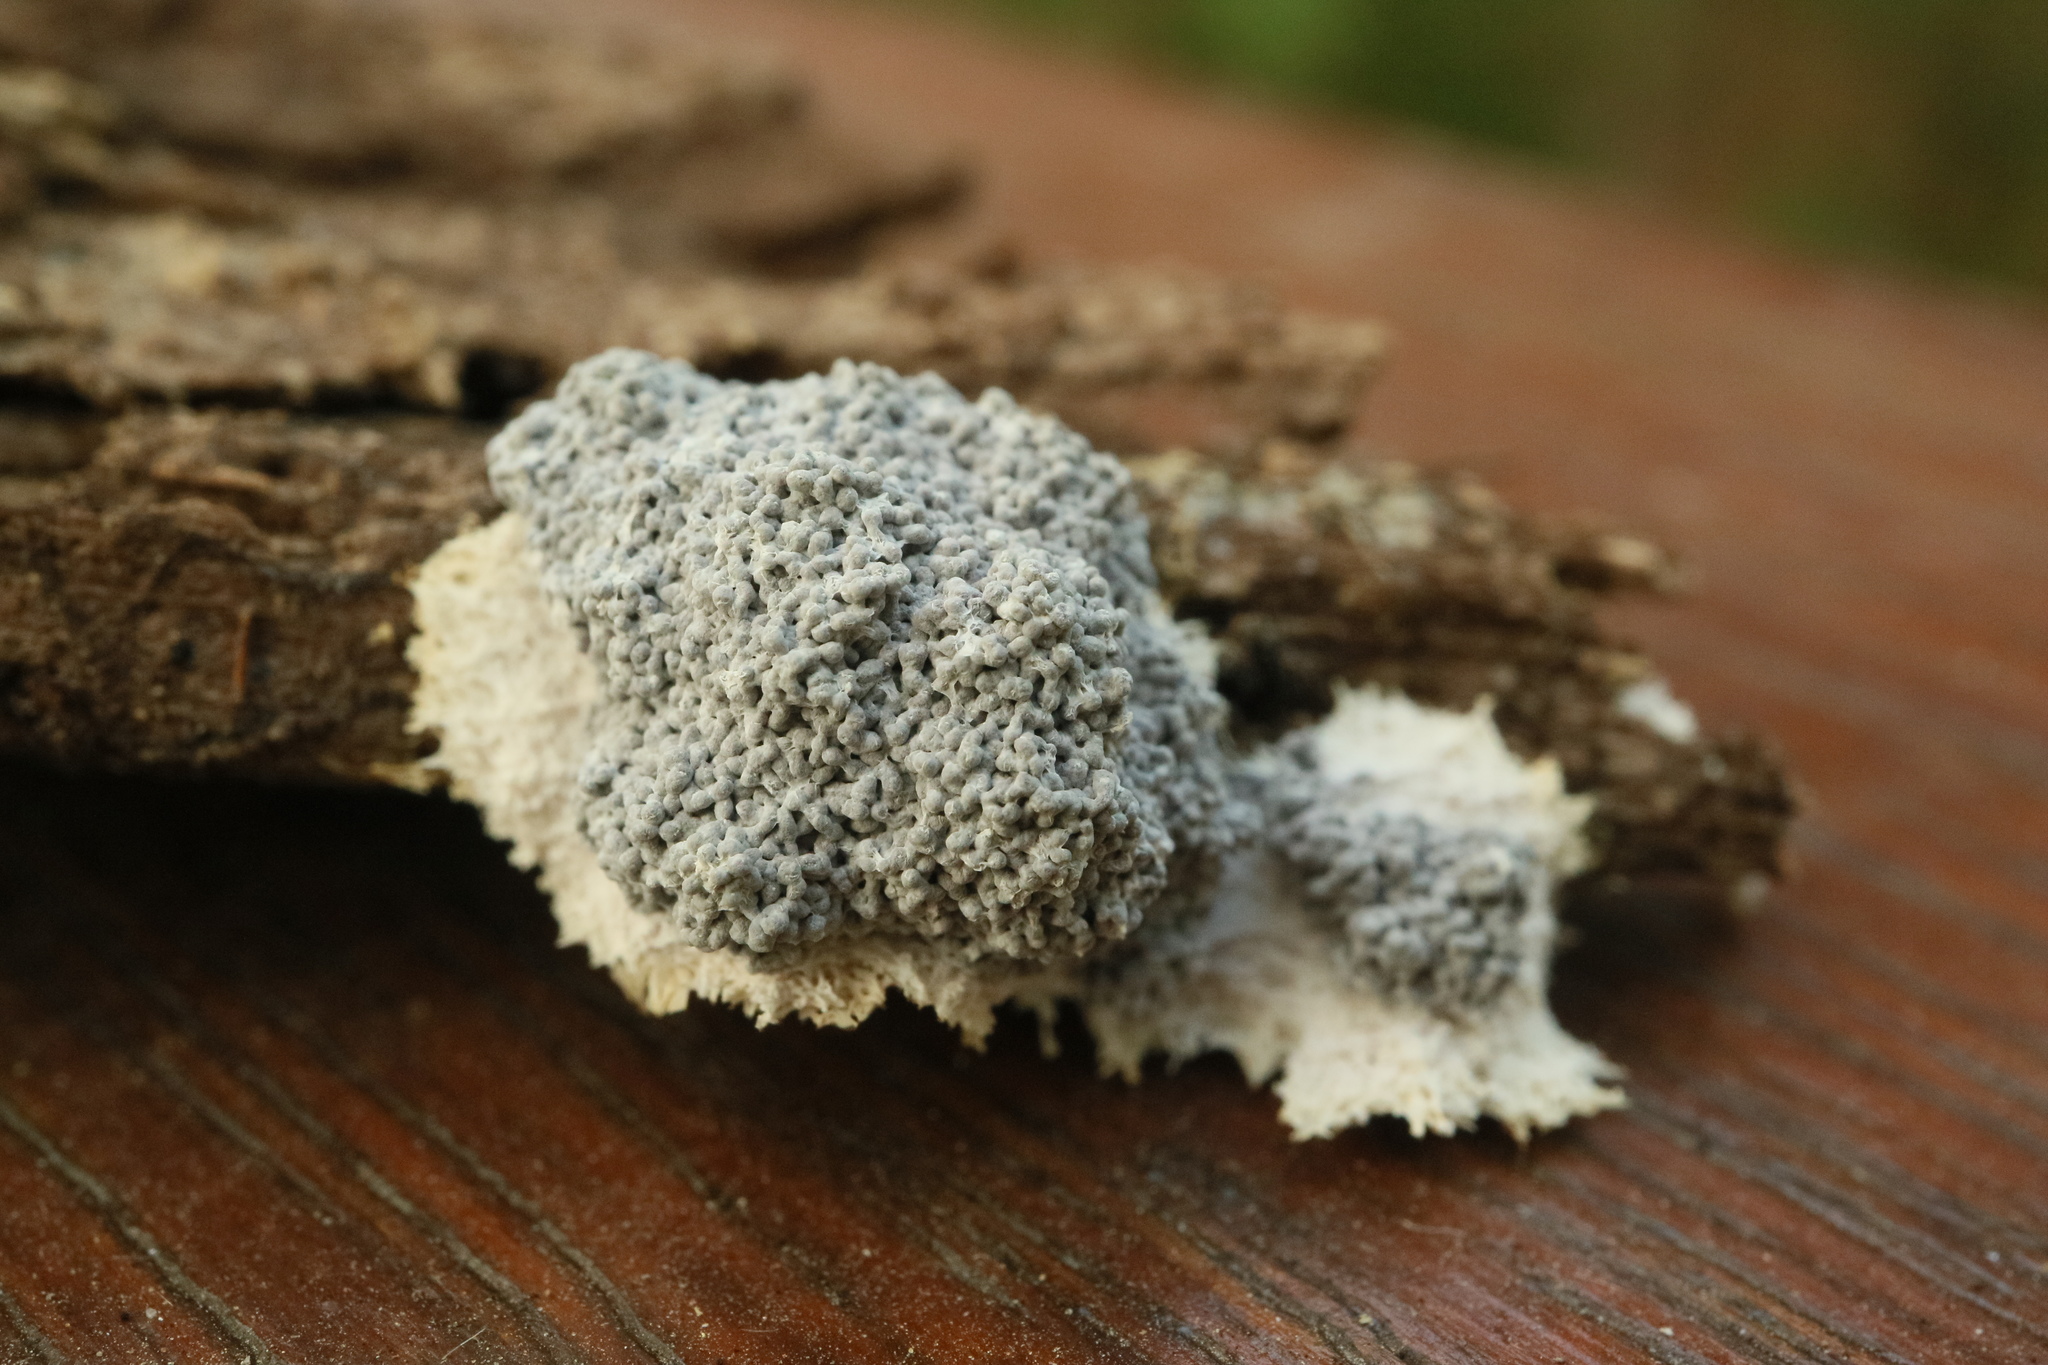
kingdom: Protozoa
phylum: Mycetozoa
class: Myxomycetes
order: Physarales
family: Physaraceae
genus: Fuligo
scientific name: Fuligo intermedia
